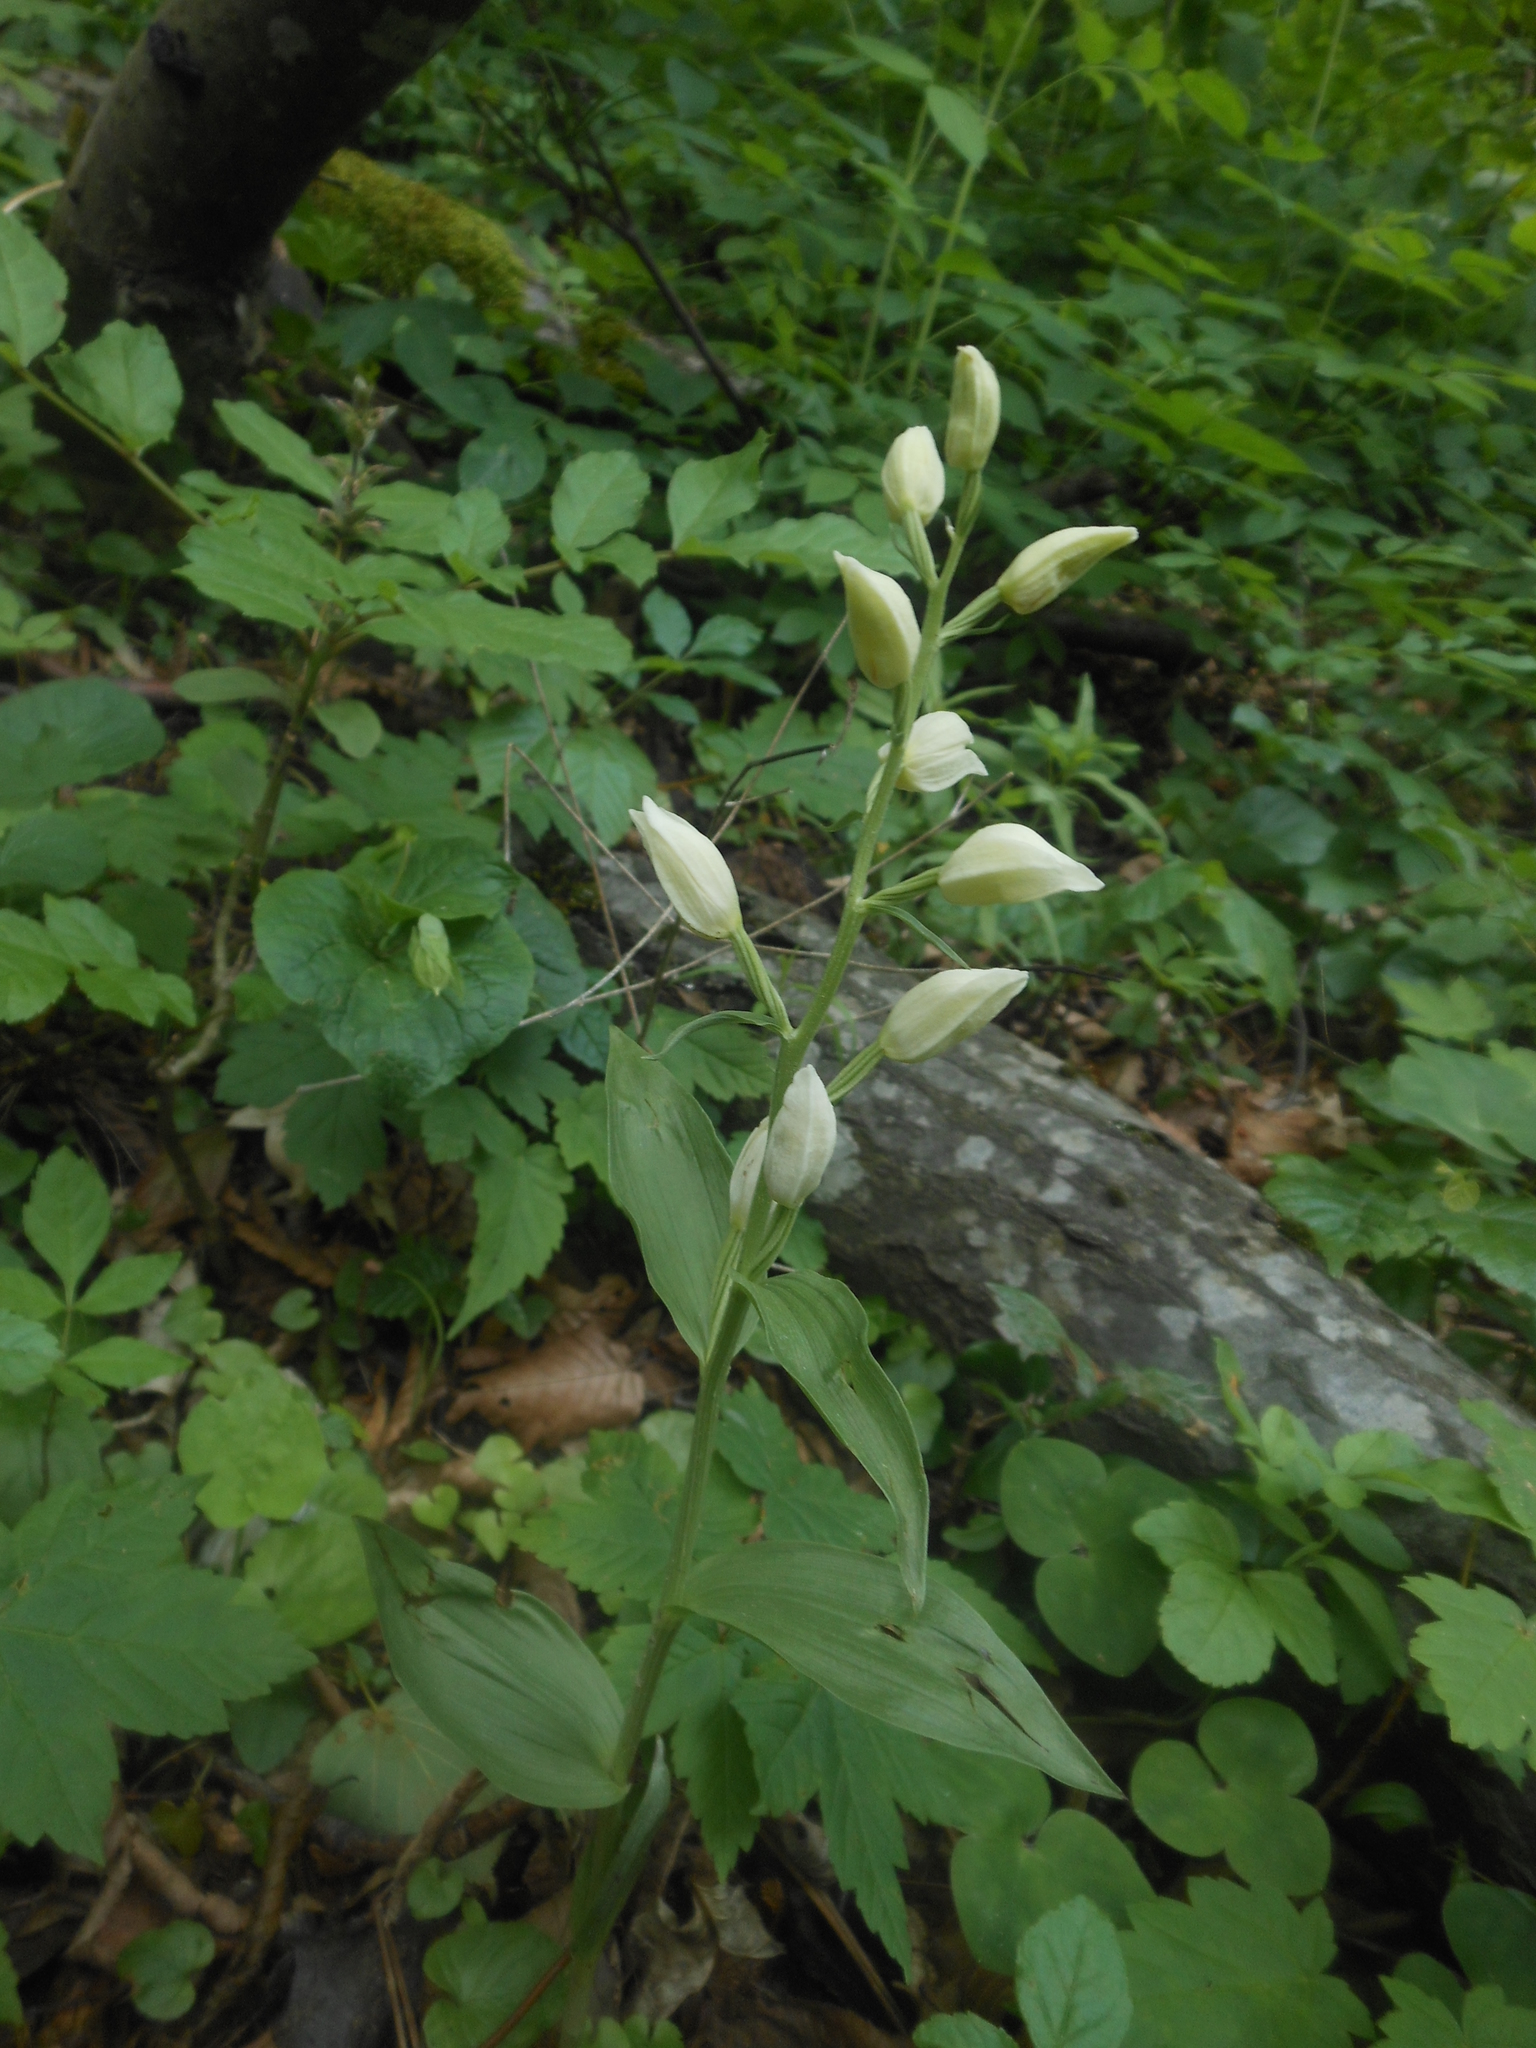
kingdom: Plantae
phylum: Tracheophyta
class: Liliopsida
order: Asparagales
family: Orchidaceae
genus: Cephalanthera
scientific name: Cephalanthera damasonium
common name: White helleborine
